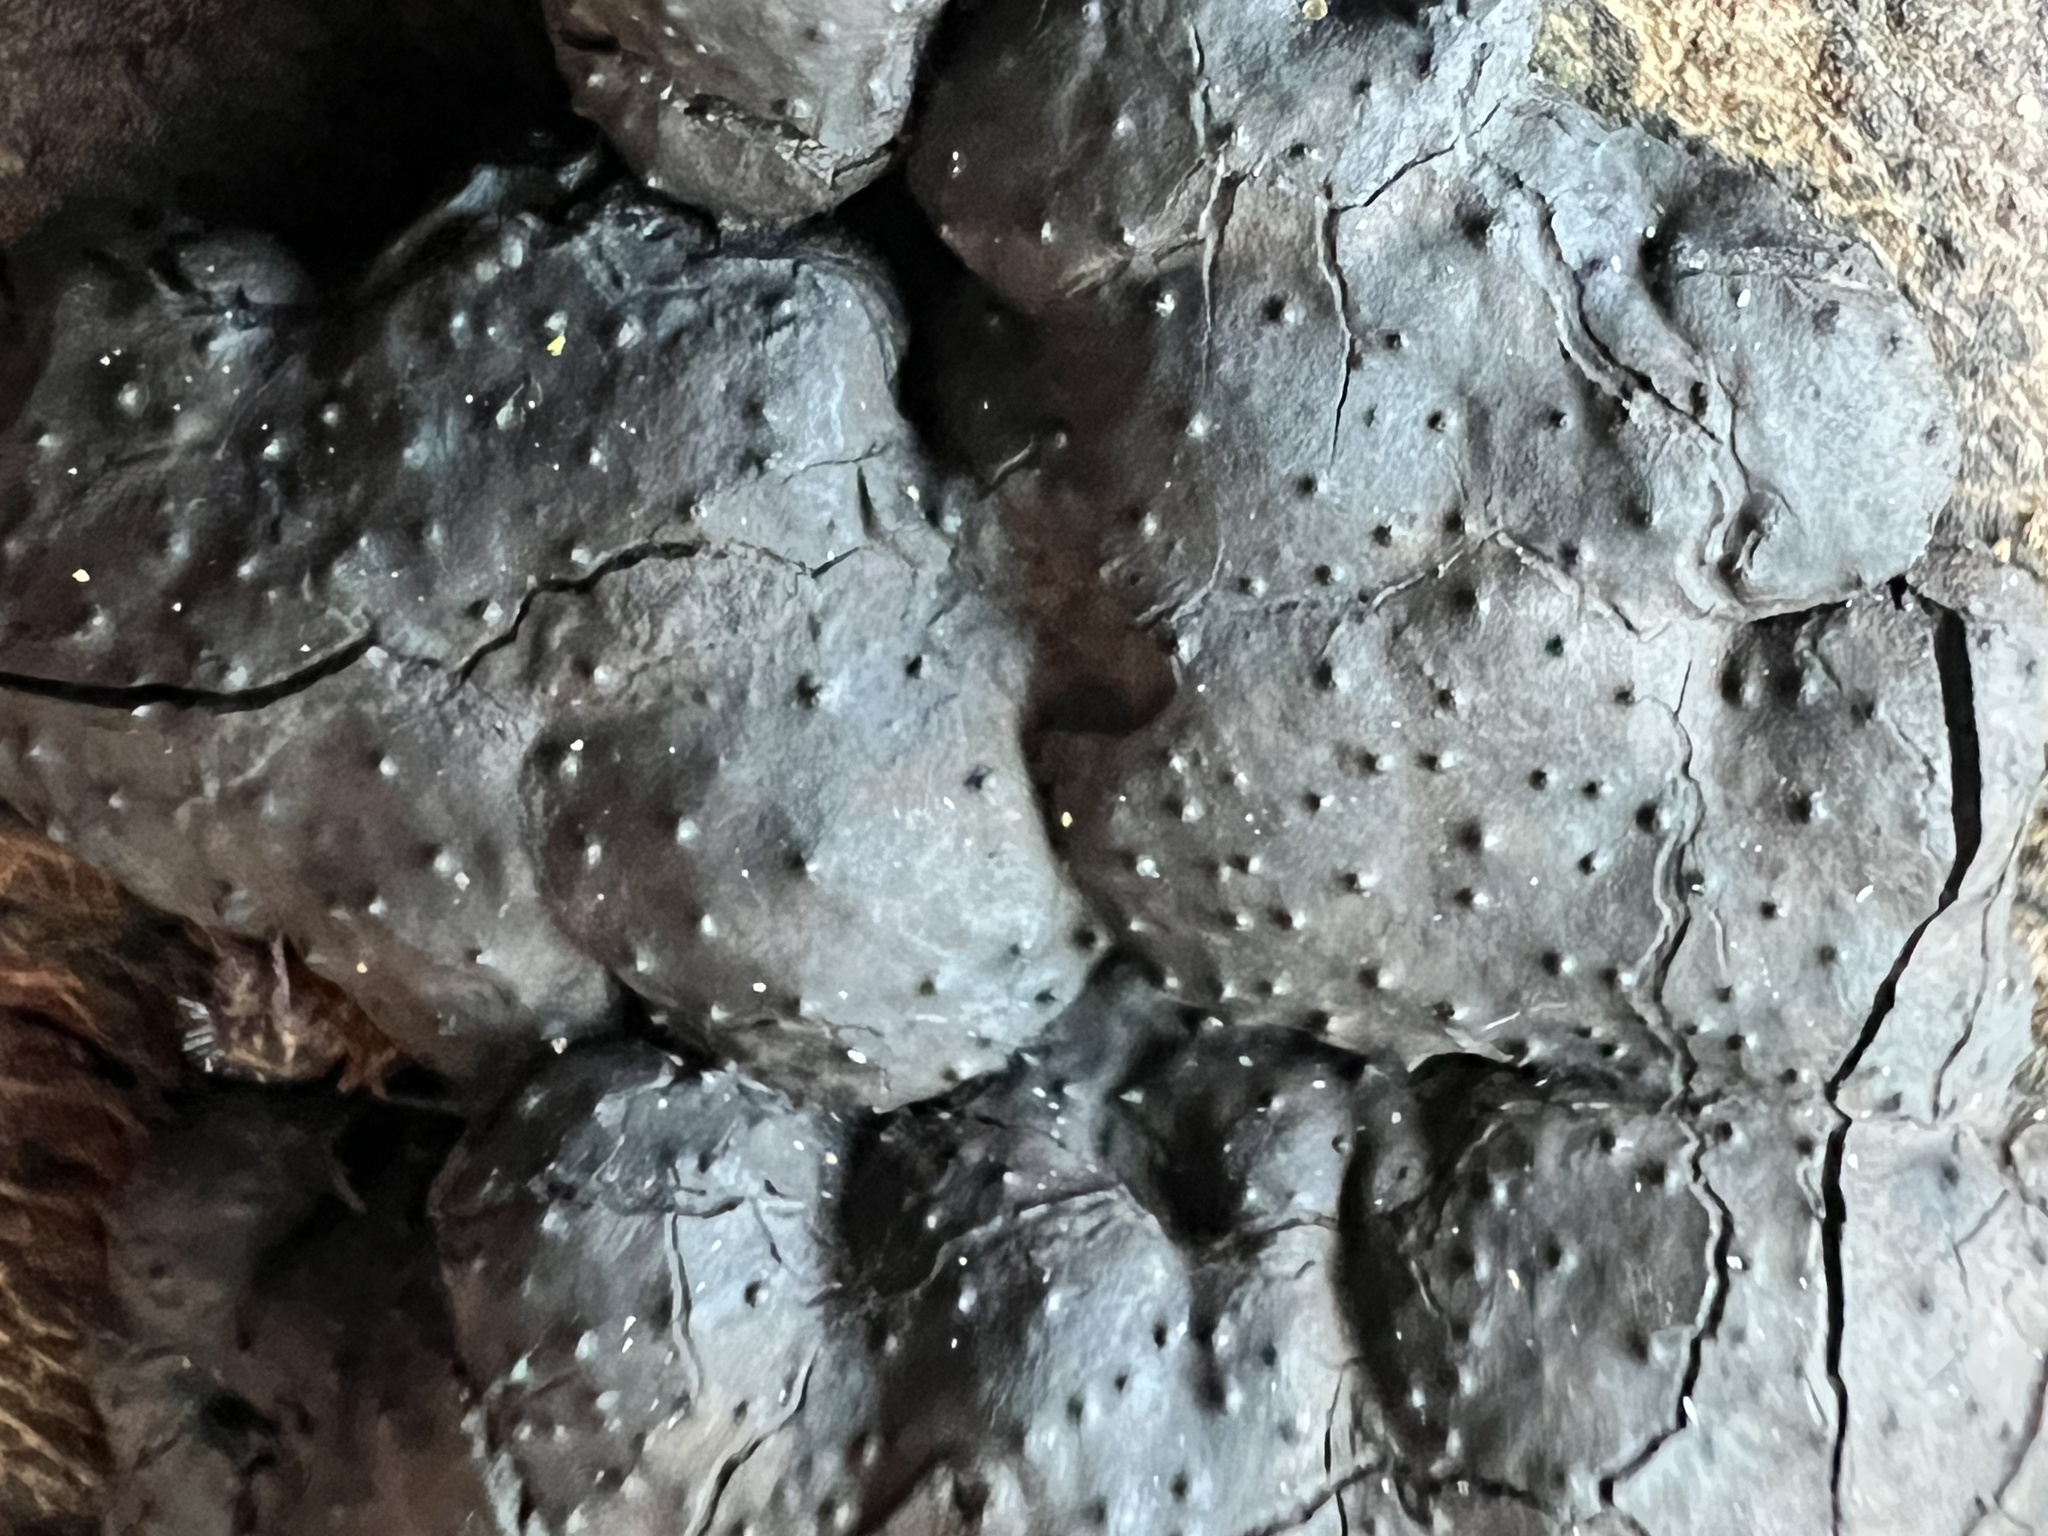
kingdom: Fungi
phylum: Ascomycota
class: Sordariomycetes
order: Xylariales
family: Xylariaceae
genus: Kretzschmaria
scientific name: Kretzschmaria hedjaroudei
